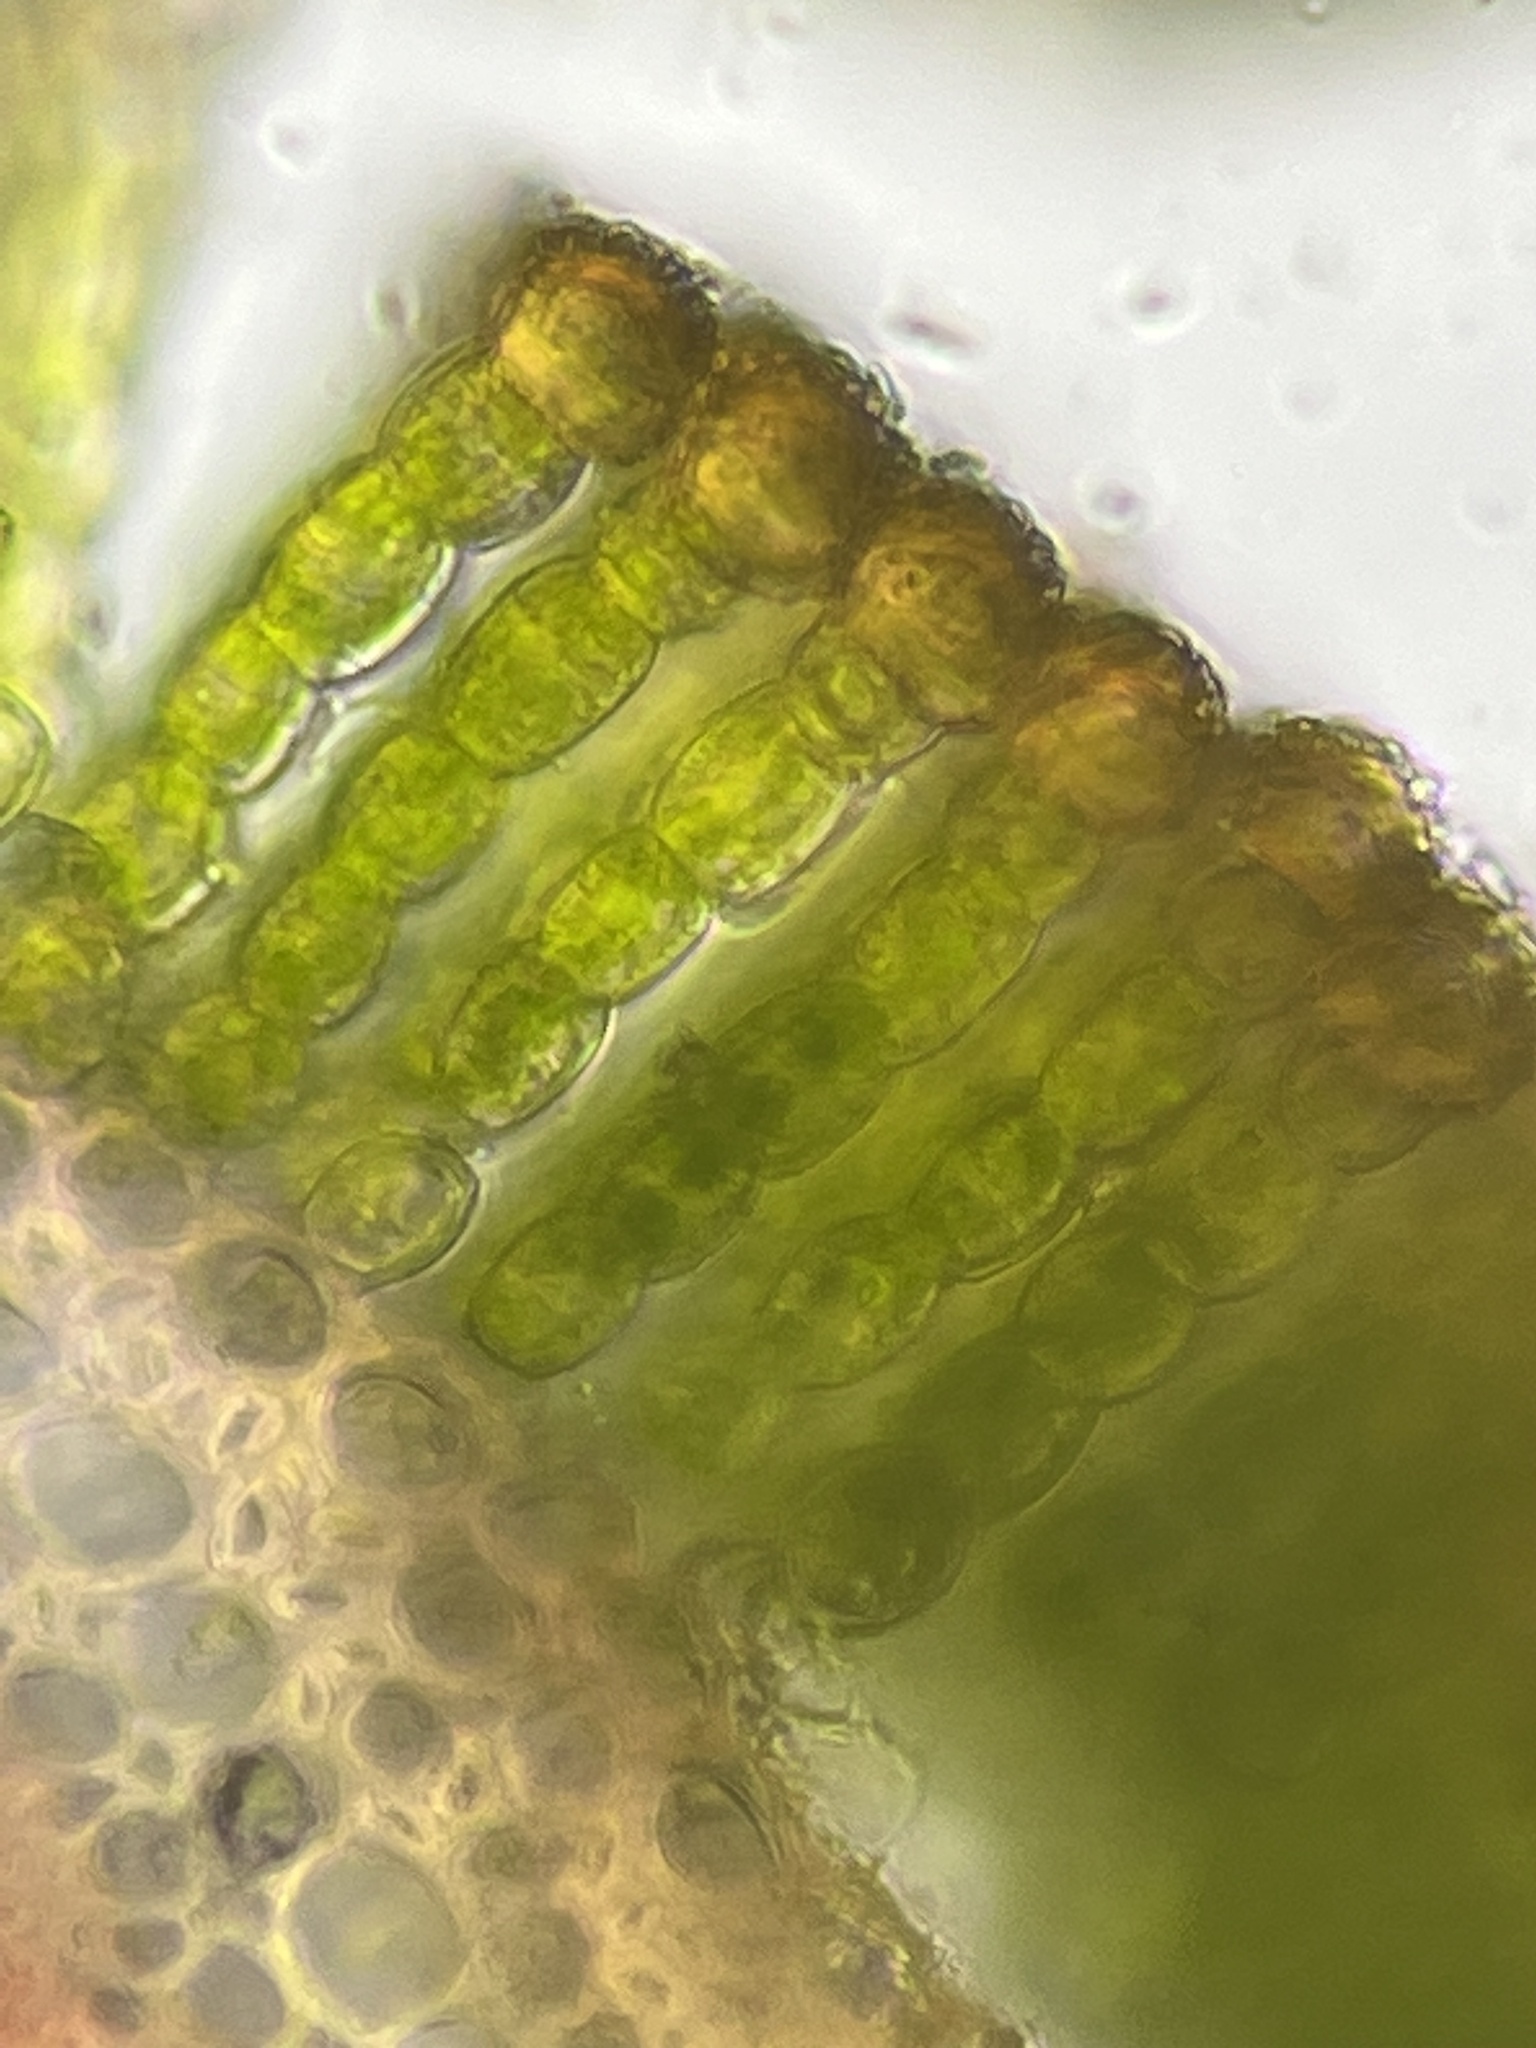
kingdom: Plantae
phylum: Bryophyta
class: Polytrichopsida
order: Polytrichales
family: Polytrichaceae
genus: Pogonatum
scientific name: Pogonatum urnigerum
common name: Urn hair moss
